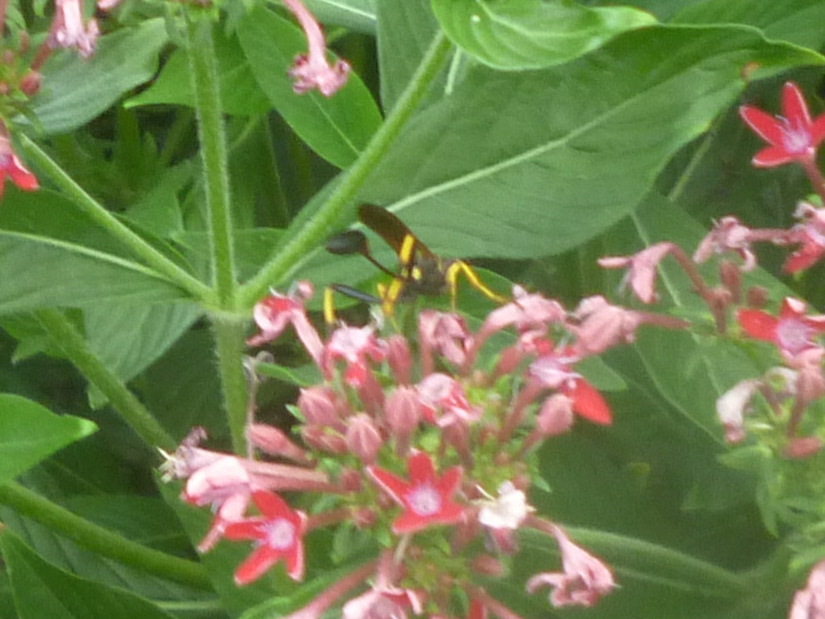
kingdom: Animalia
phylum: Arthropoda
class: Insecta
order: Hymenoptera
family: Sphecidae
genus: Sceliphron
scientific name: Sceliphron caementarium
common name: Mud dauber
